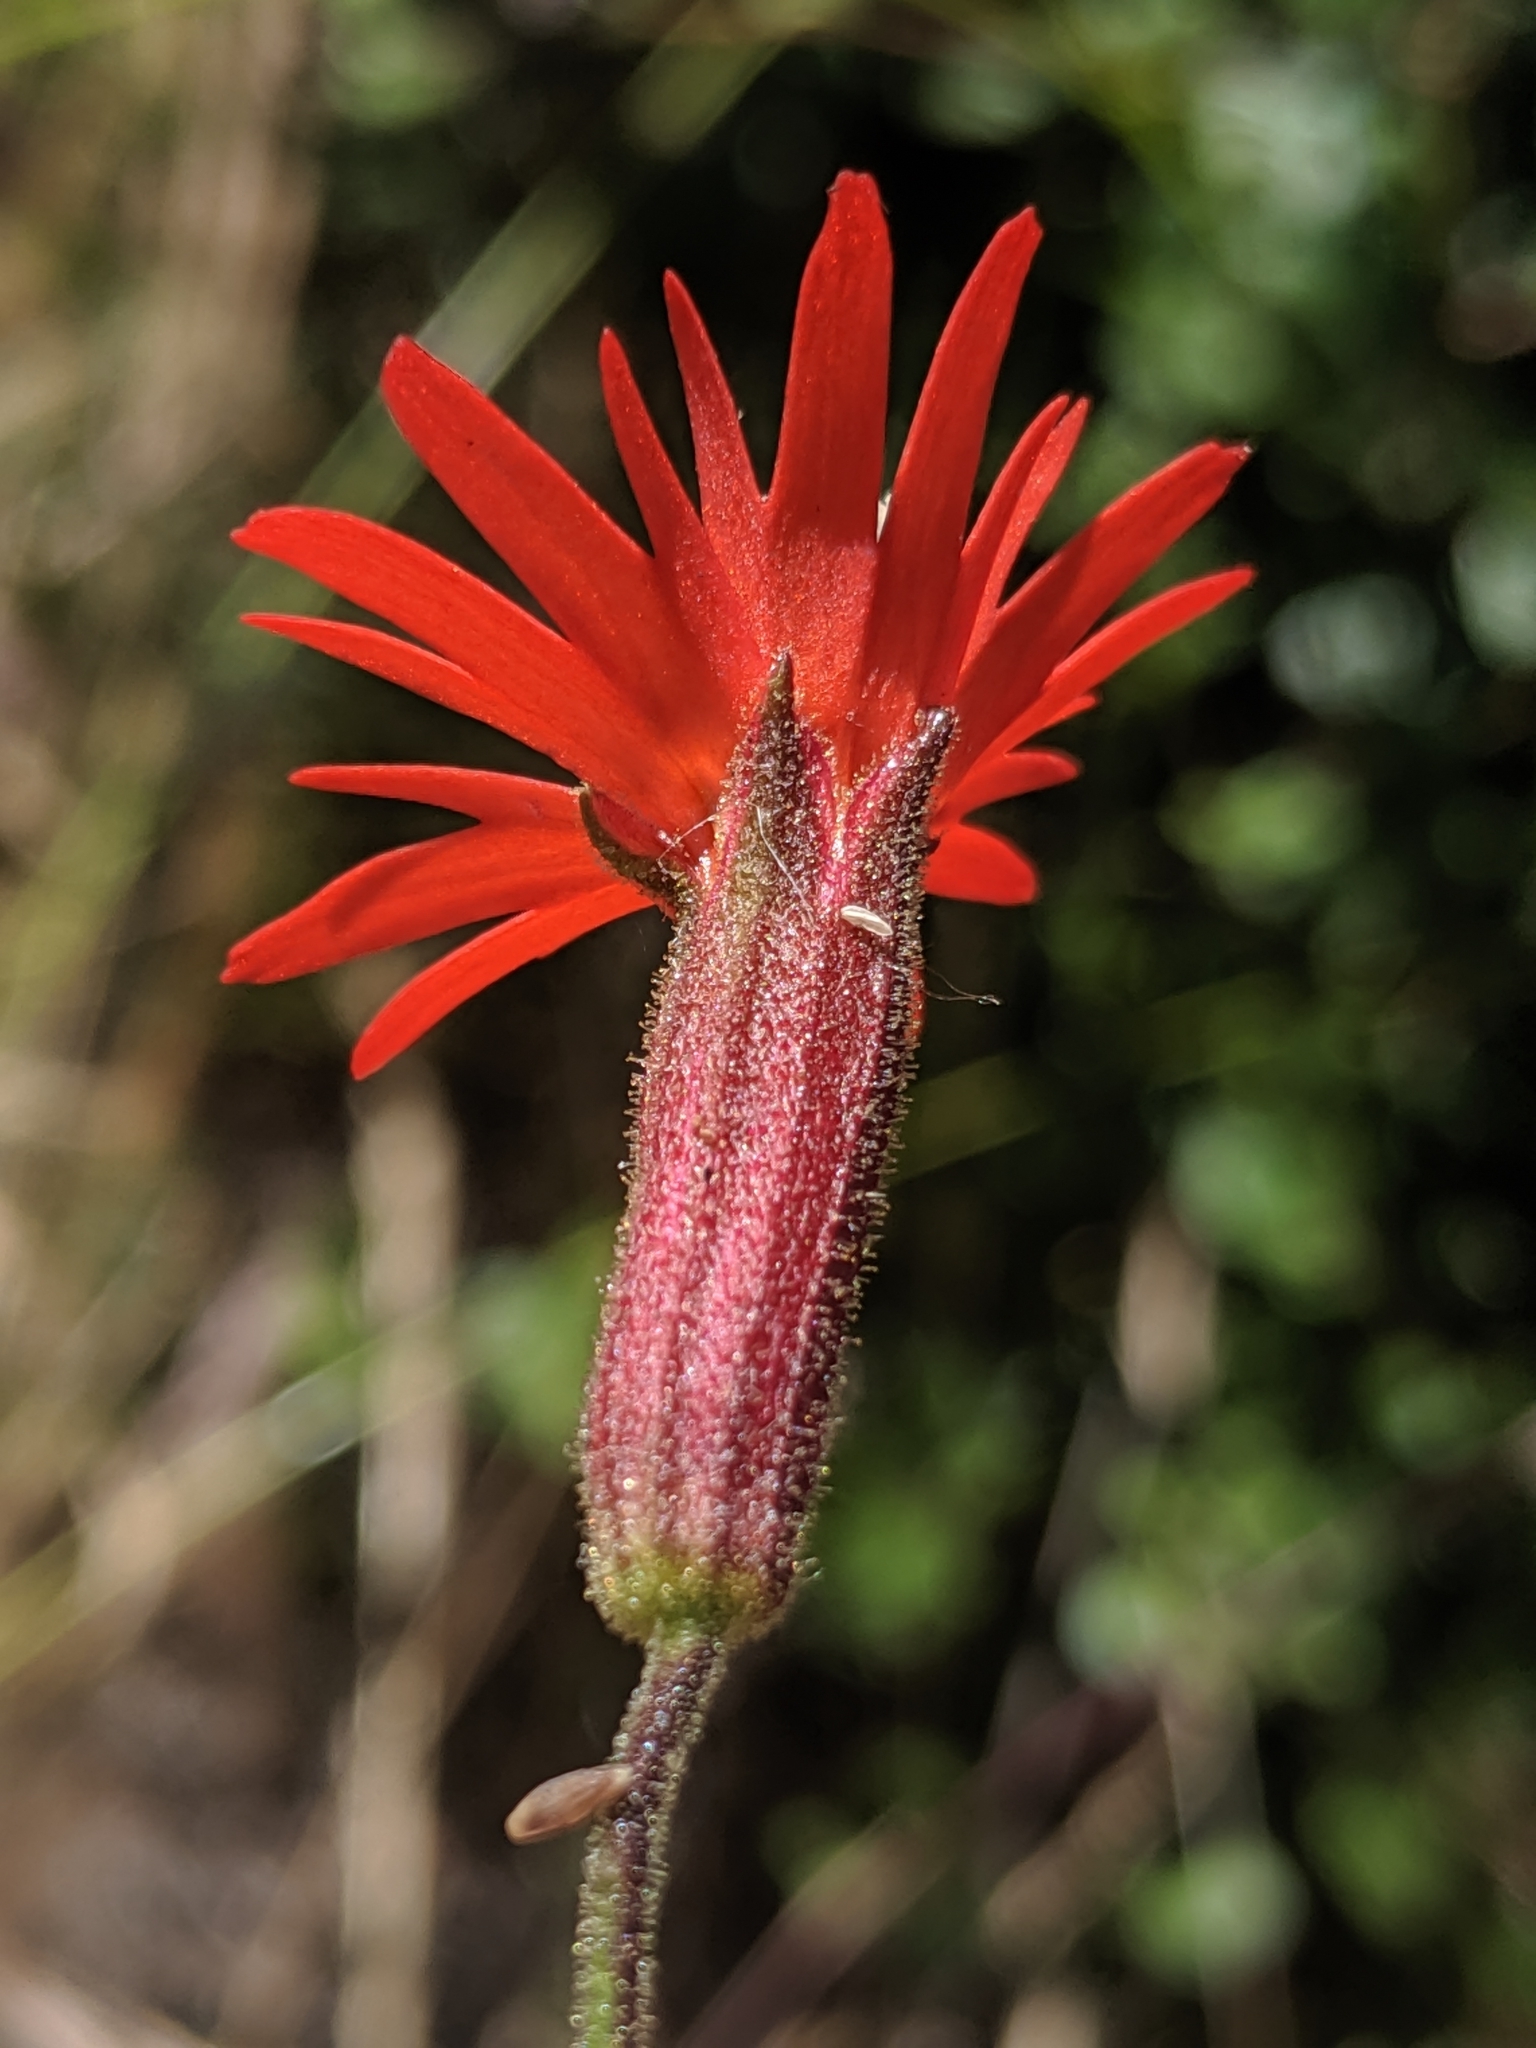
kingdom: Plantae
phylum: Tracheophyta
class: Magnoliopsida
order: Caryophyllales
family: Caryophyllaceae
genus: Silene
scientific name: Silene laciniata
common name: Indian-pink
